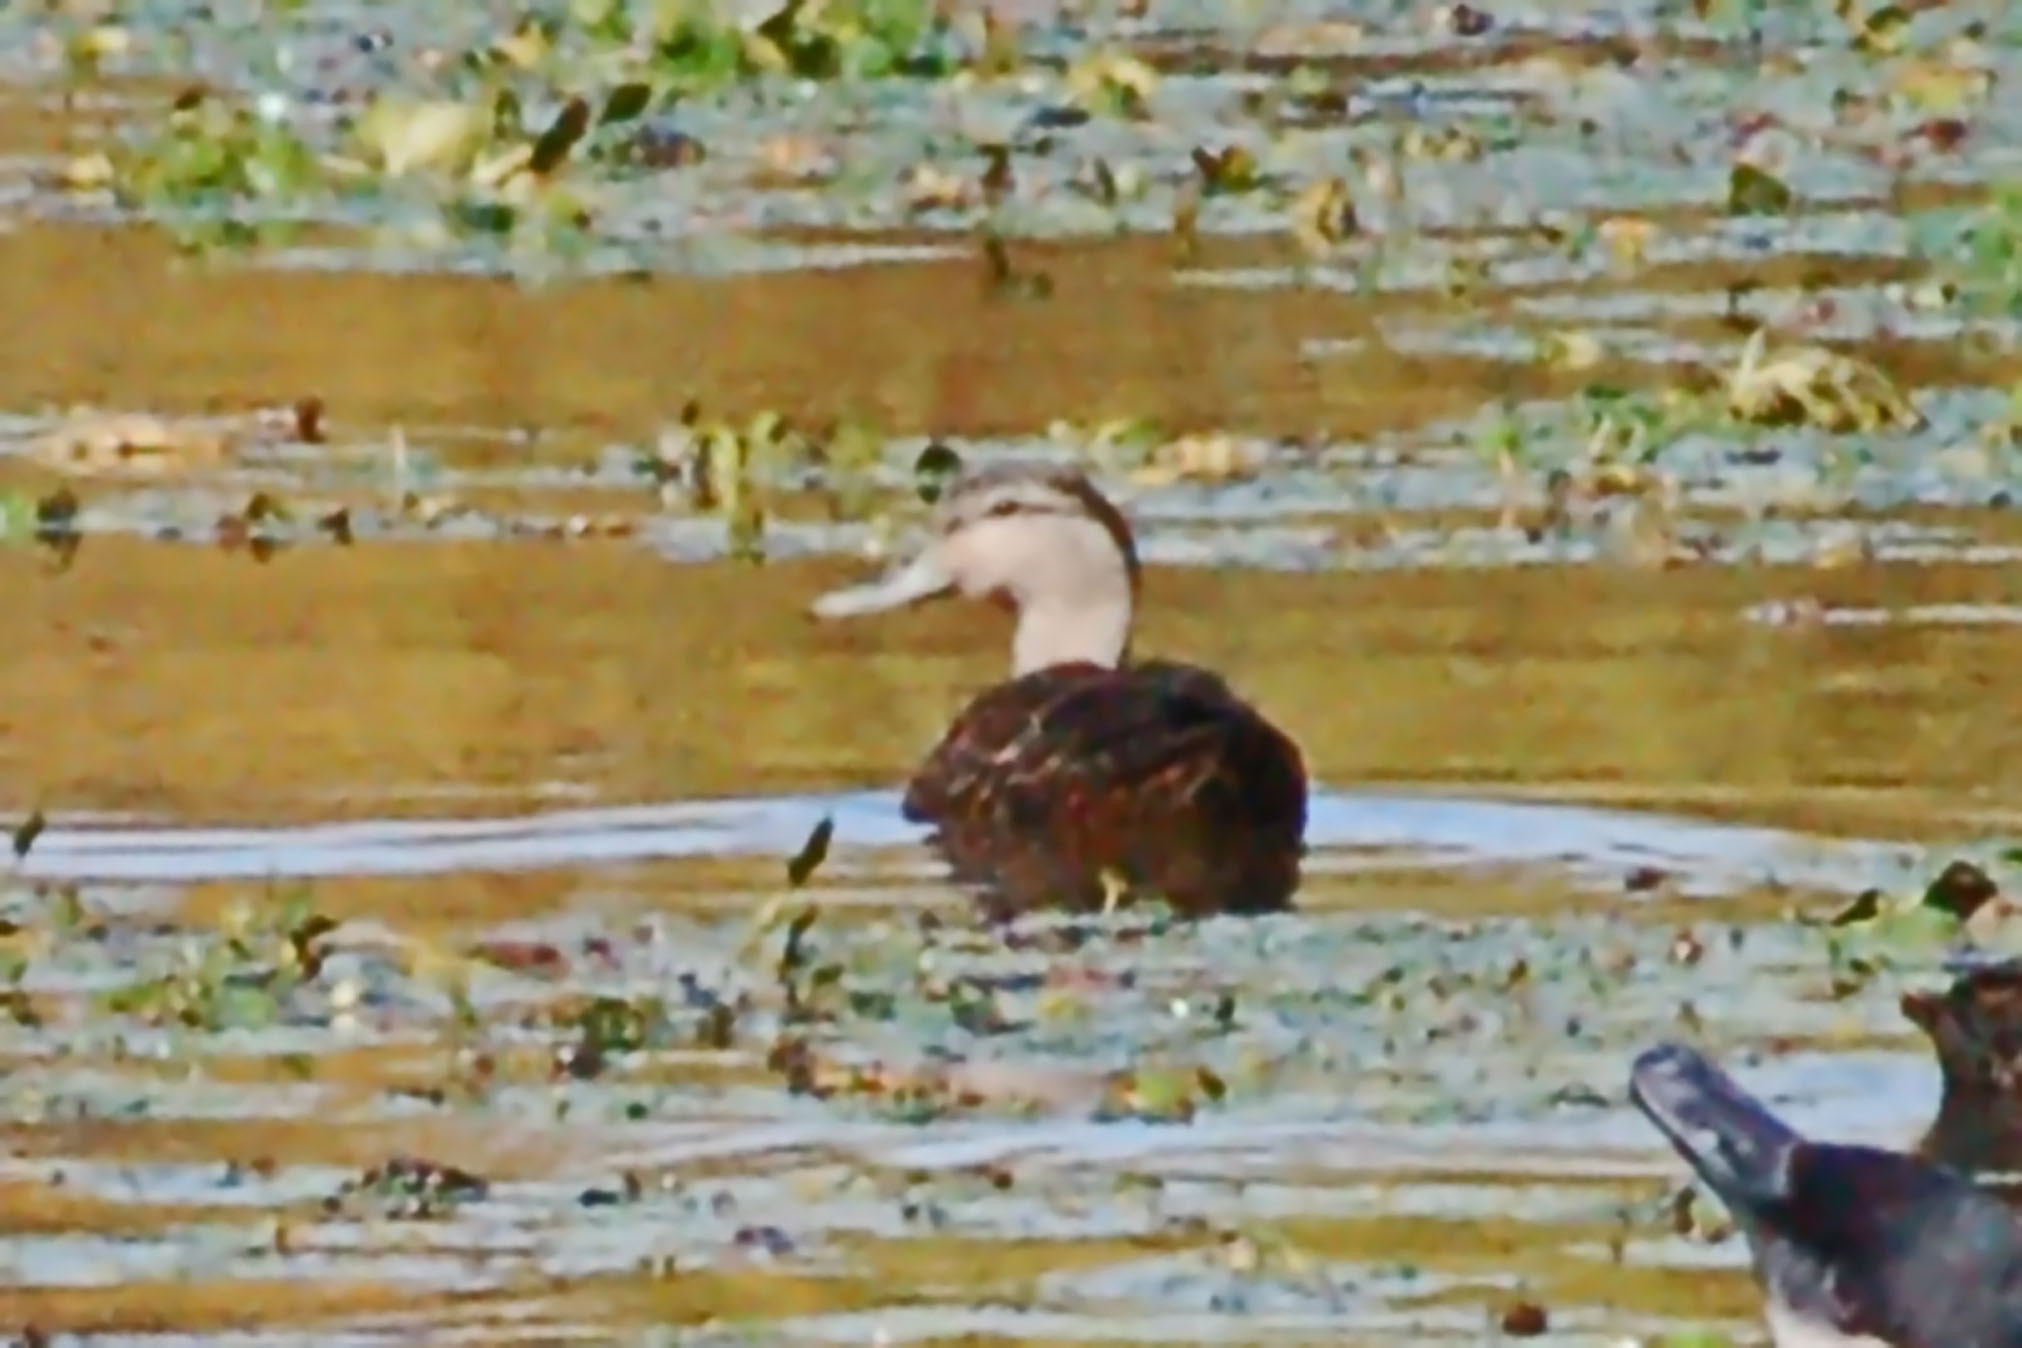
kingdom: Animalia
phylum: Chordata
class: Aves
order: Anseriformes
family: Anatidae
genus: Anas
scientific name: Anas rubripes
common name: American black duck
